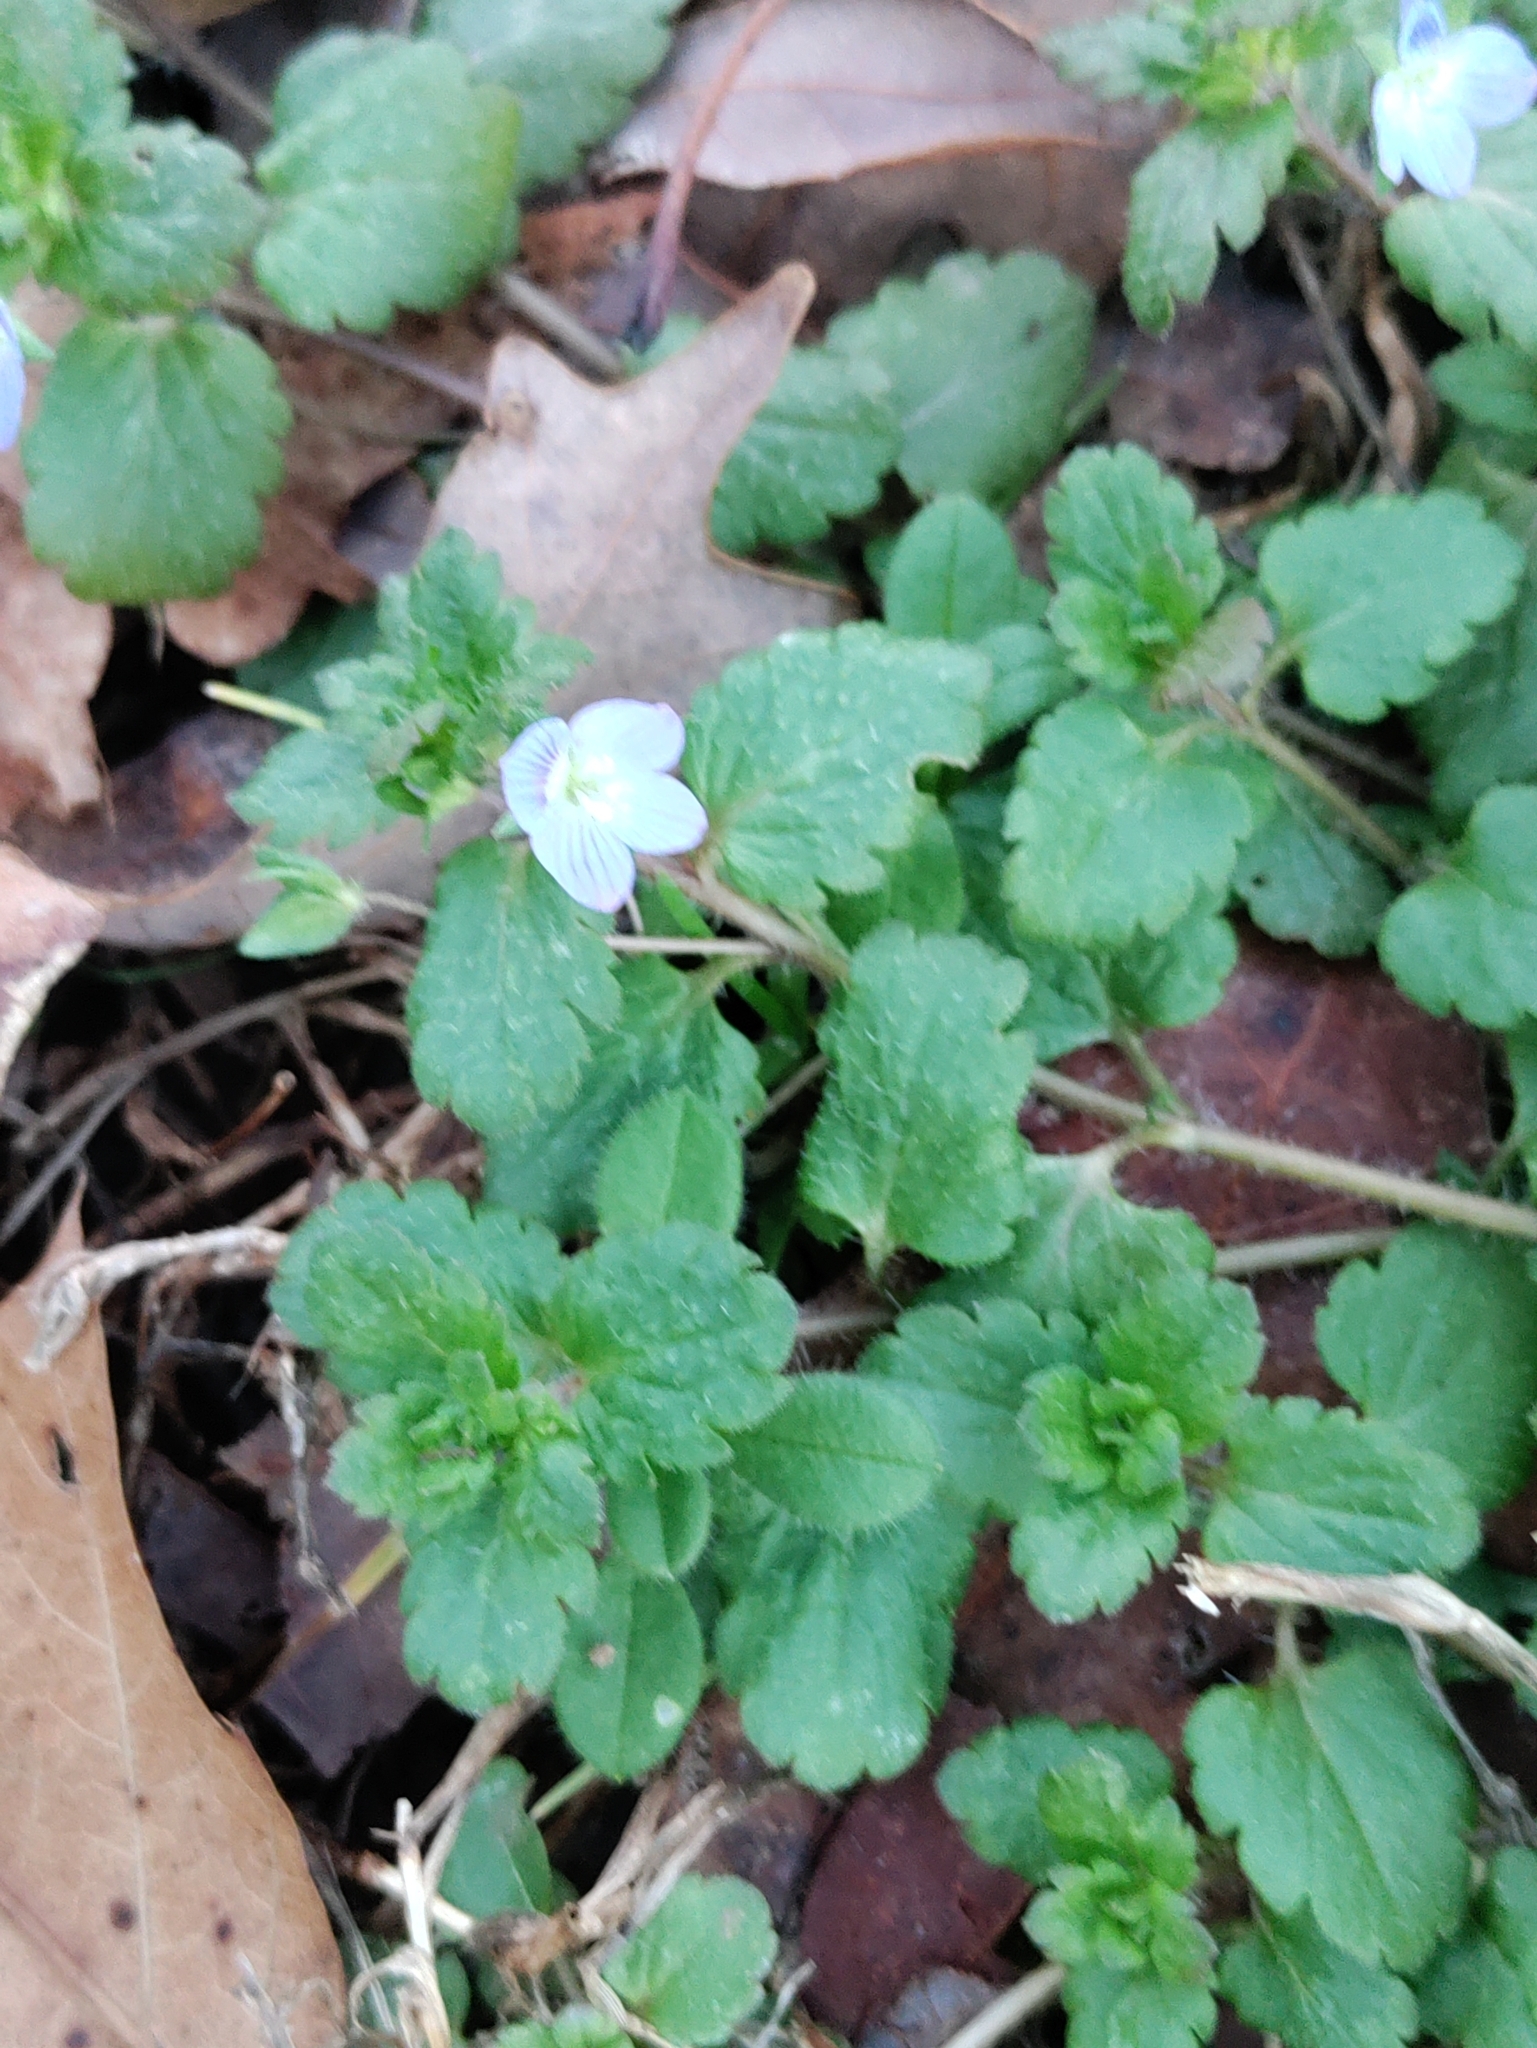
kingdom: Plantae
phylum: Tracheophyta
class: Magnoliopsida
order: Lamiales
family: Plantaginaceae
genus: Veronica
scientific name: Veronica persica
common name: Common field-speedwell
